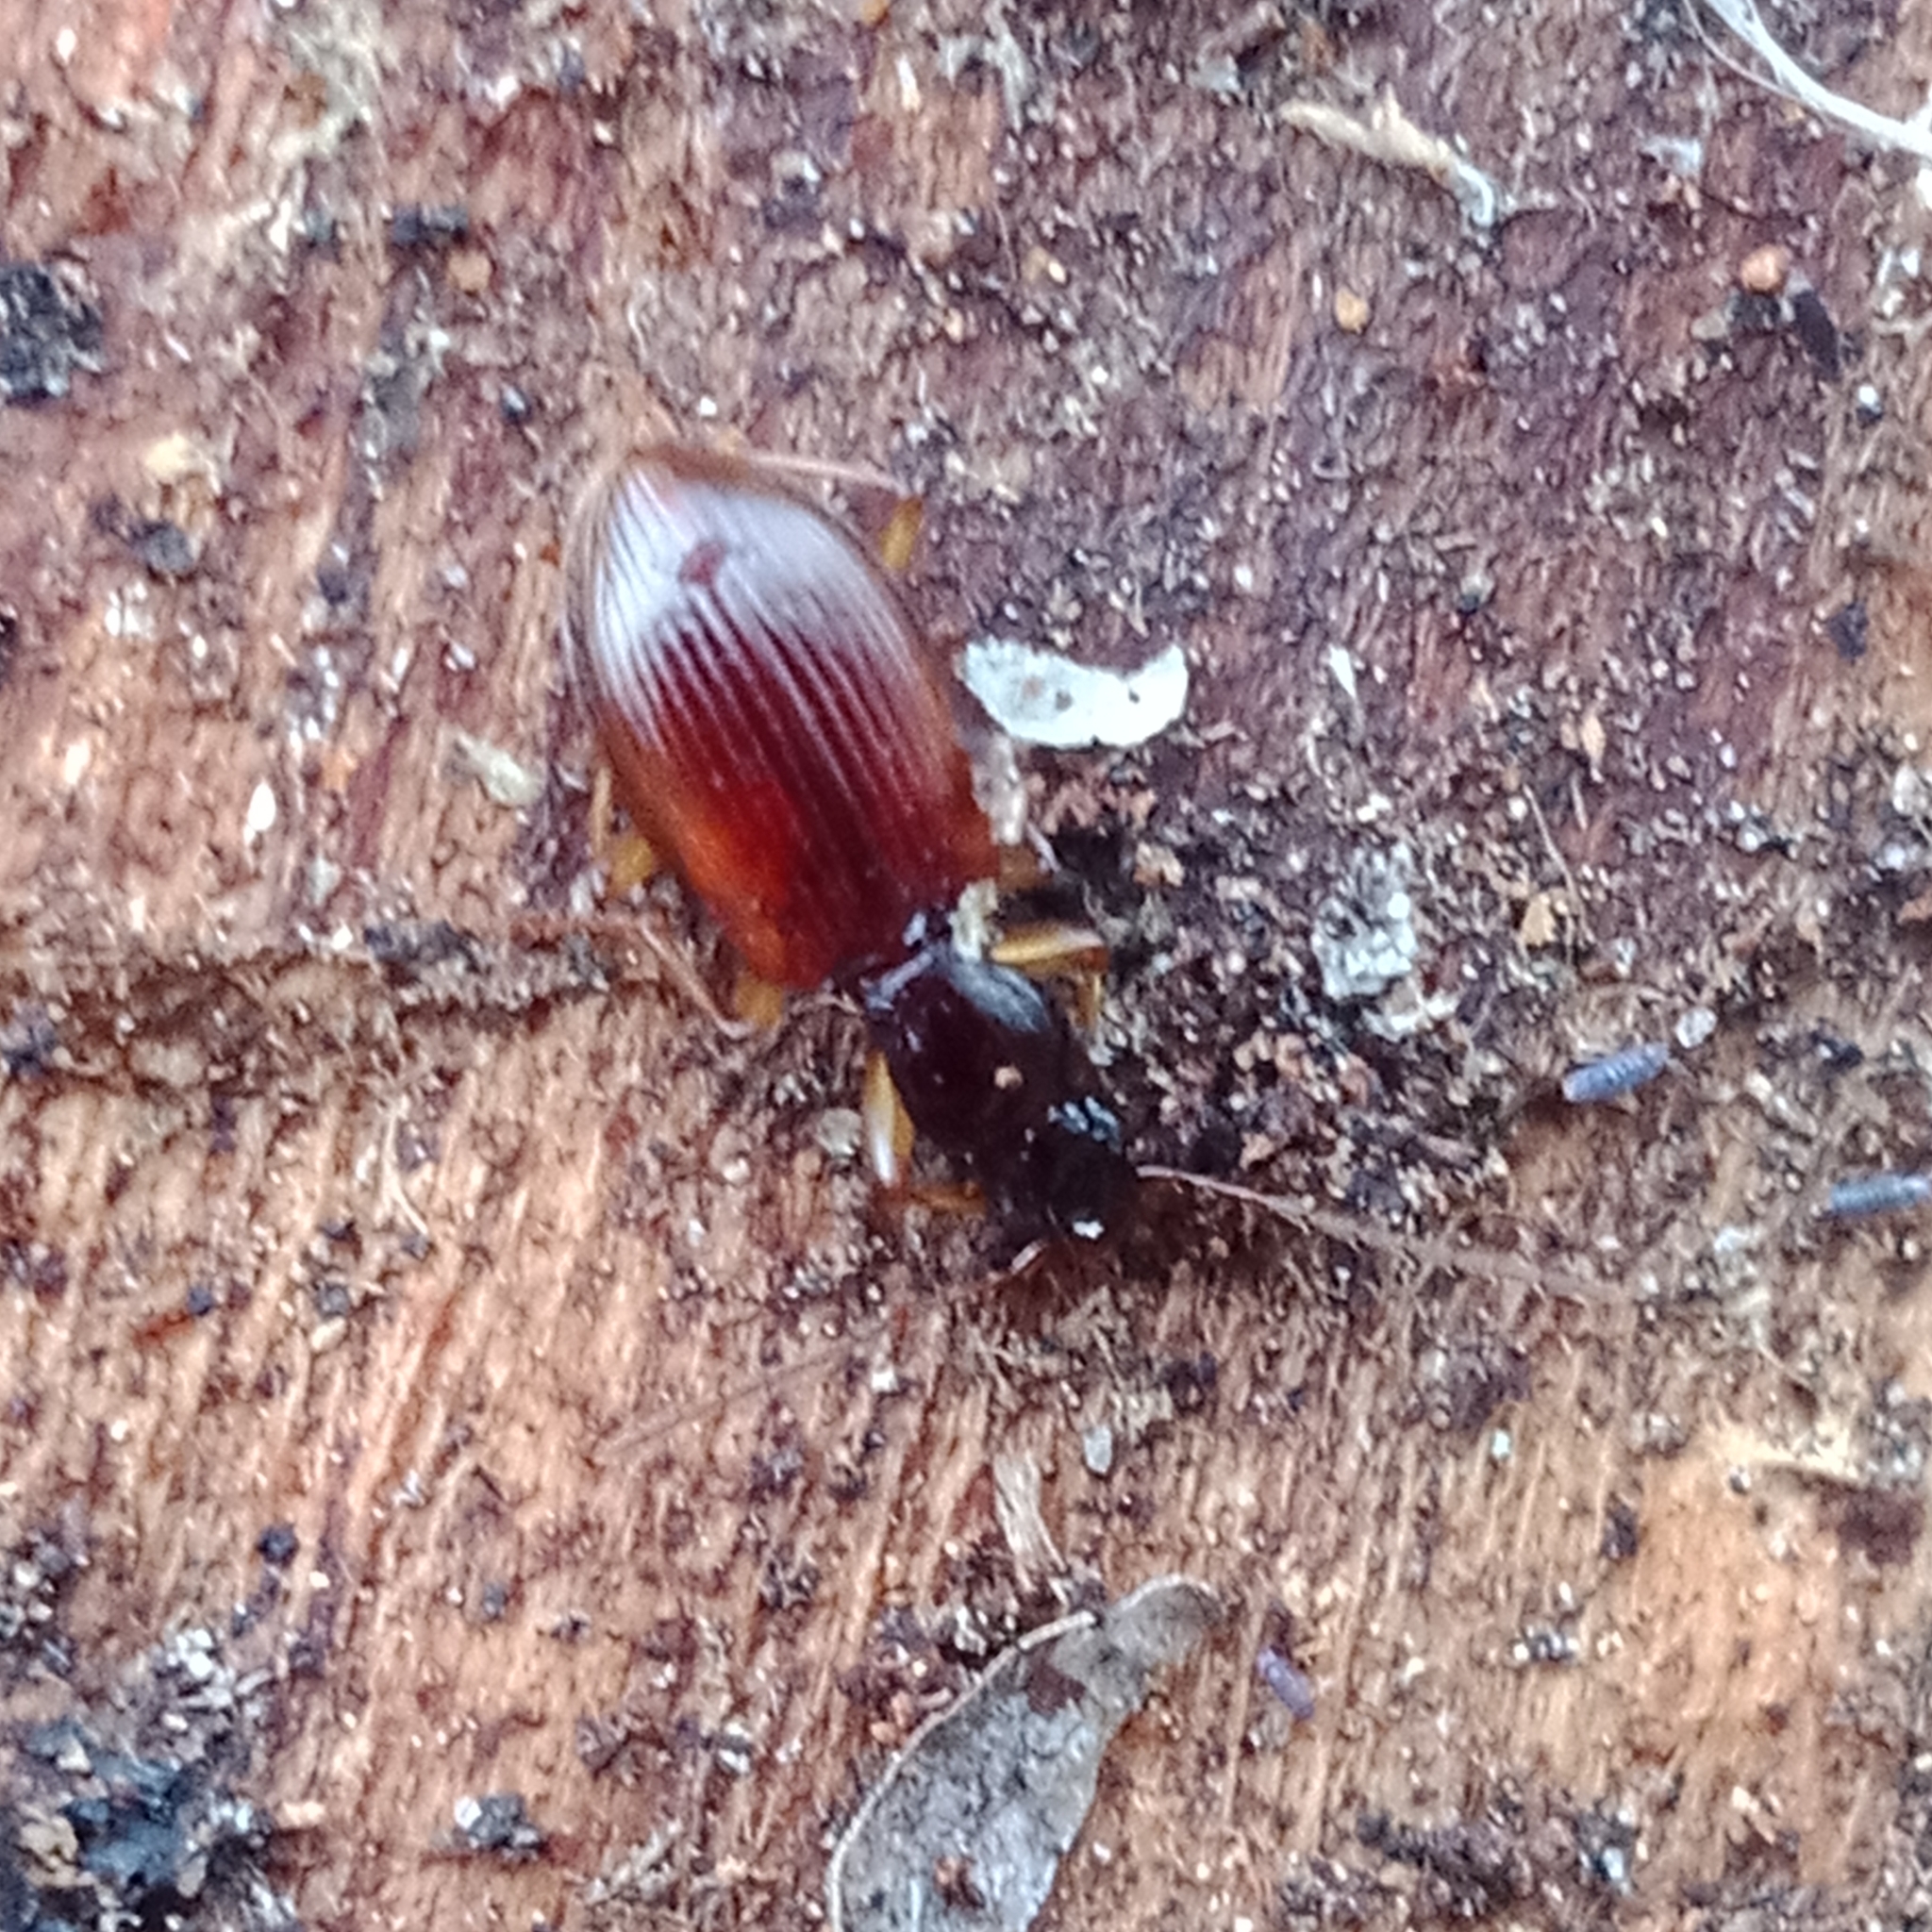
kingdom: Animalia
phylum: Arthropoda
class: Insecta
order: Coleoptera
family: Carabidae
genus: Oxypselaphus
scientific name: Oxypselaphus obscurus
